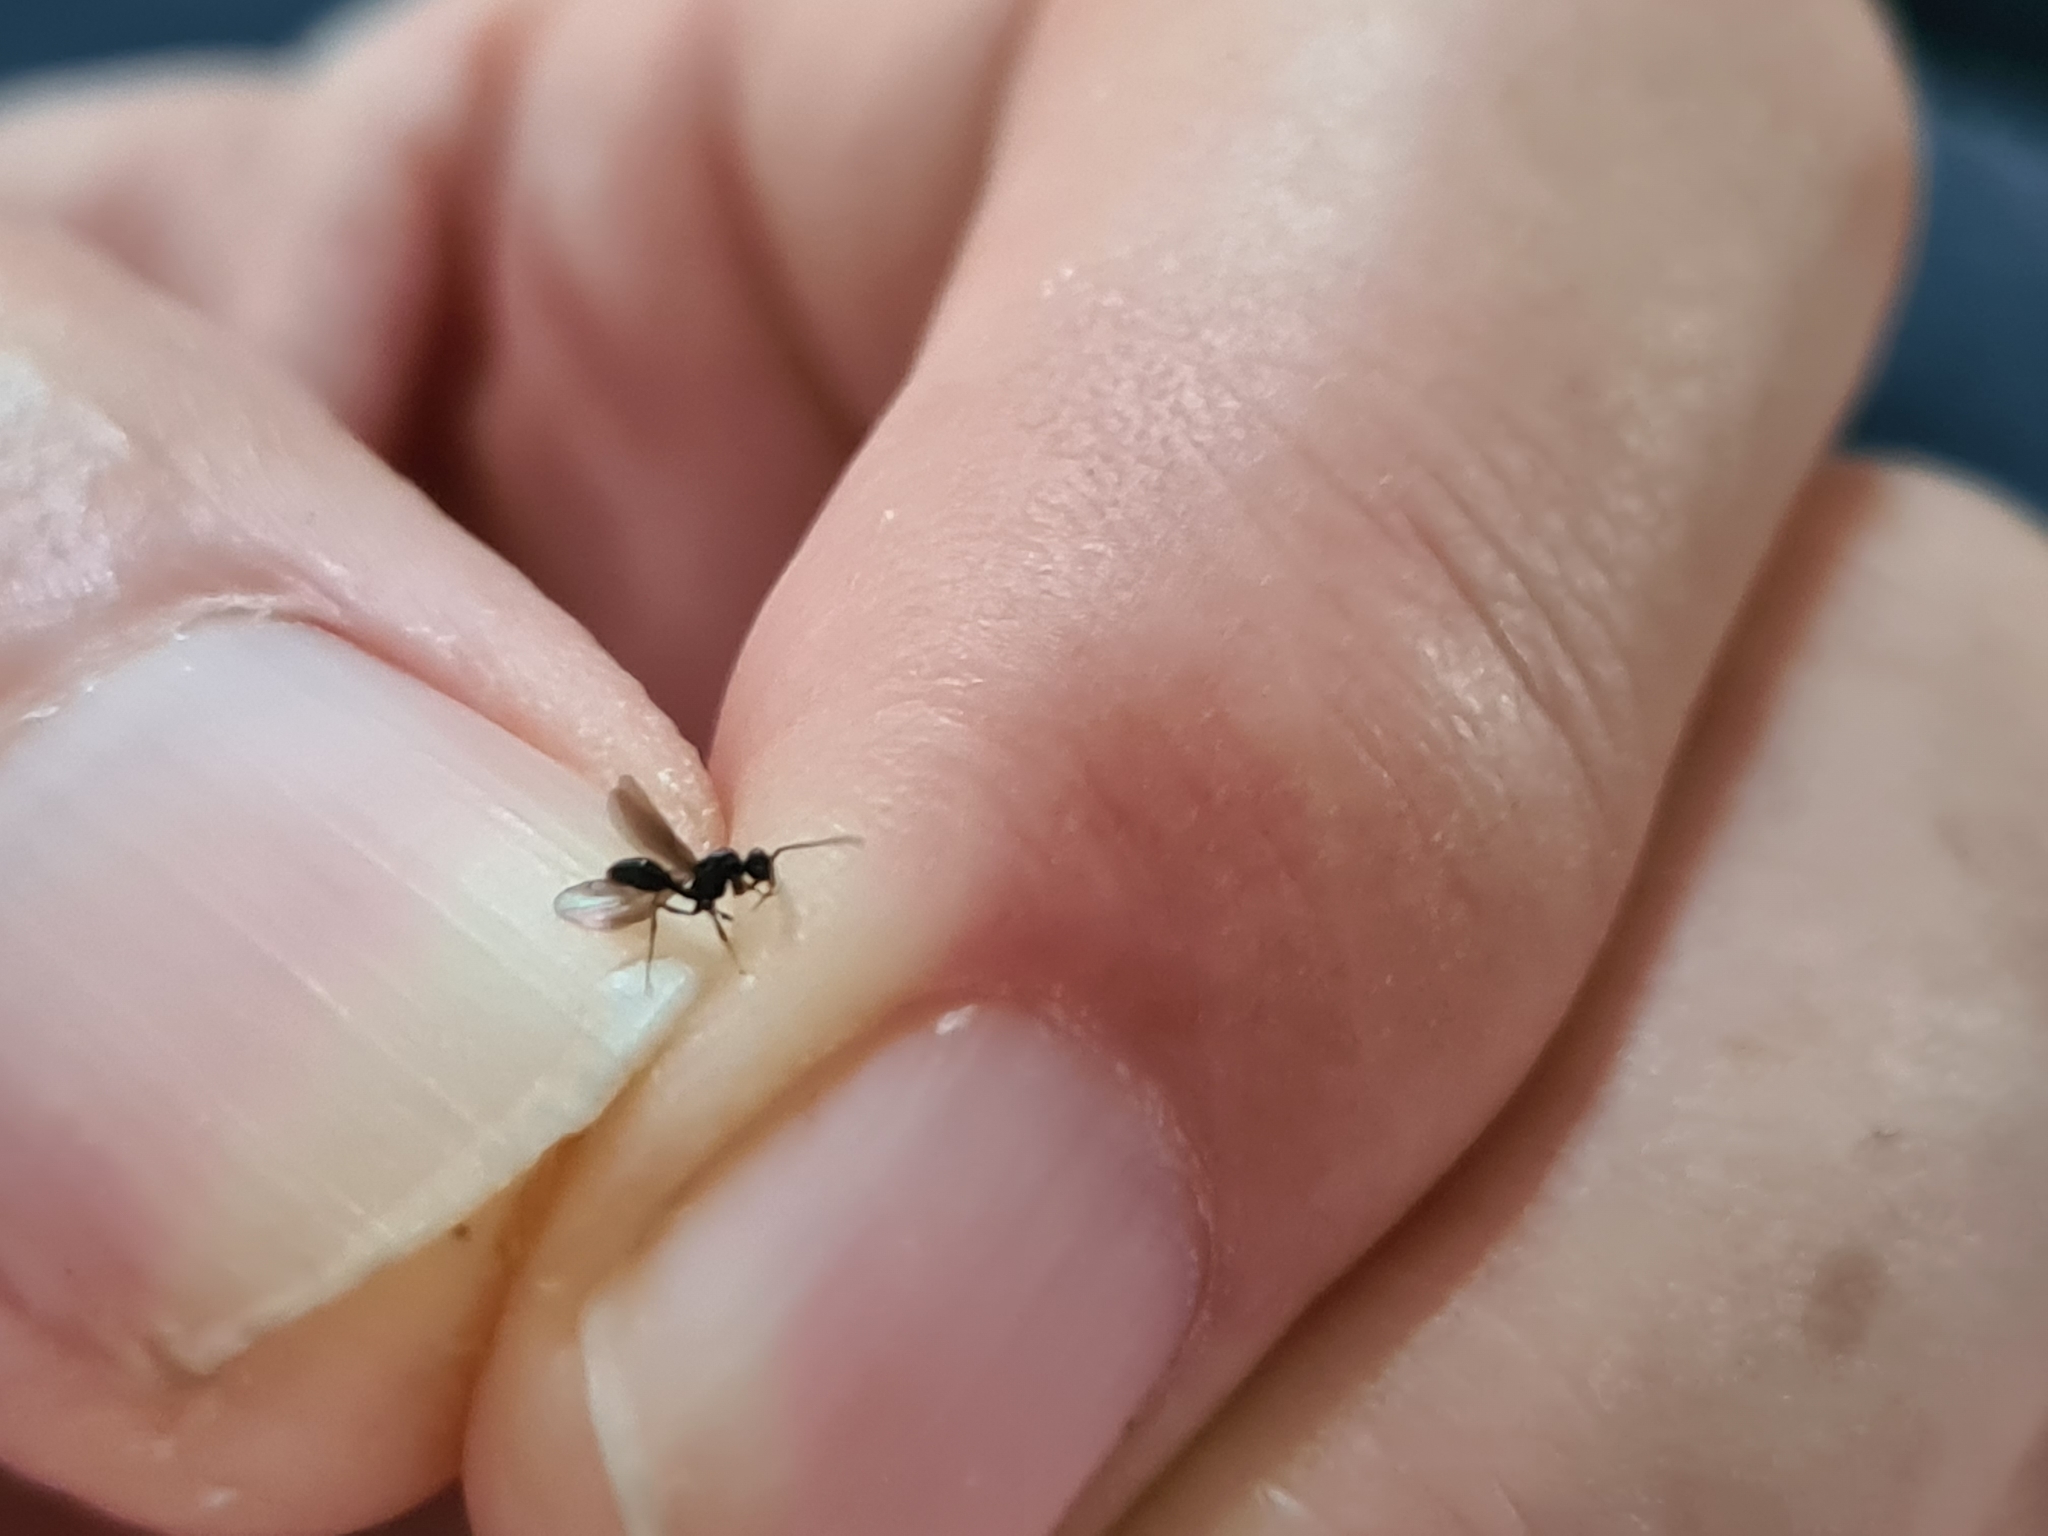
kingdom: Animalia
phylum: Arthropoda
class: Insecta
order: Hymenoptera
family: Formicidae
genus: Myrmecina
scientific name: Myrmecina graminicola
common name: Grass ant
